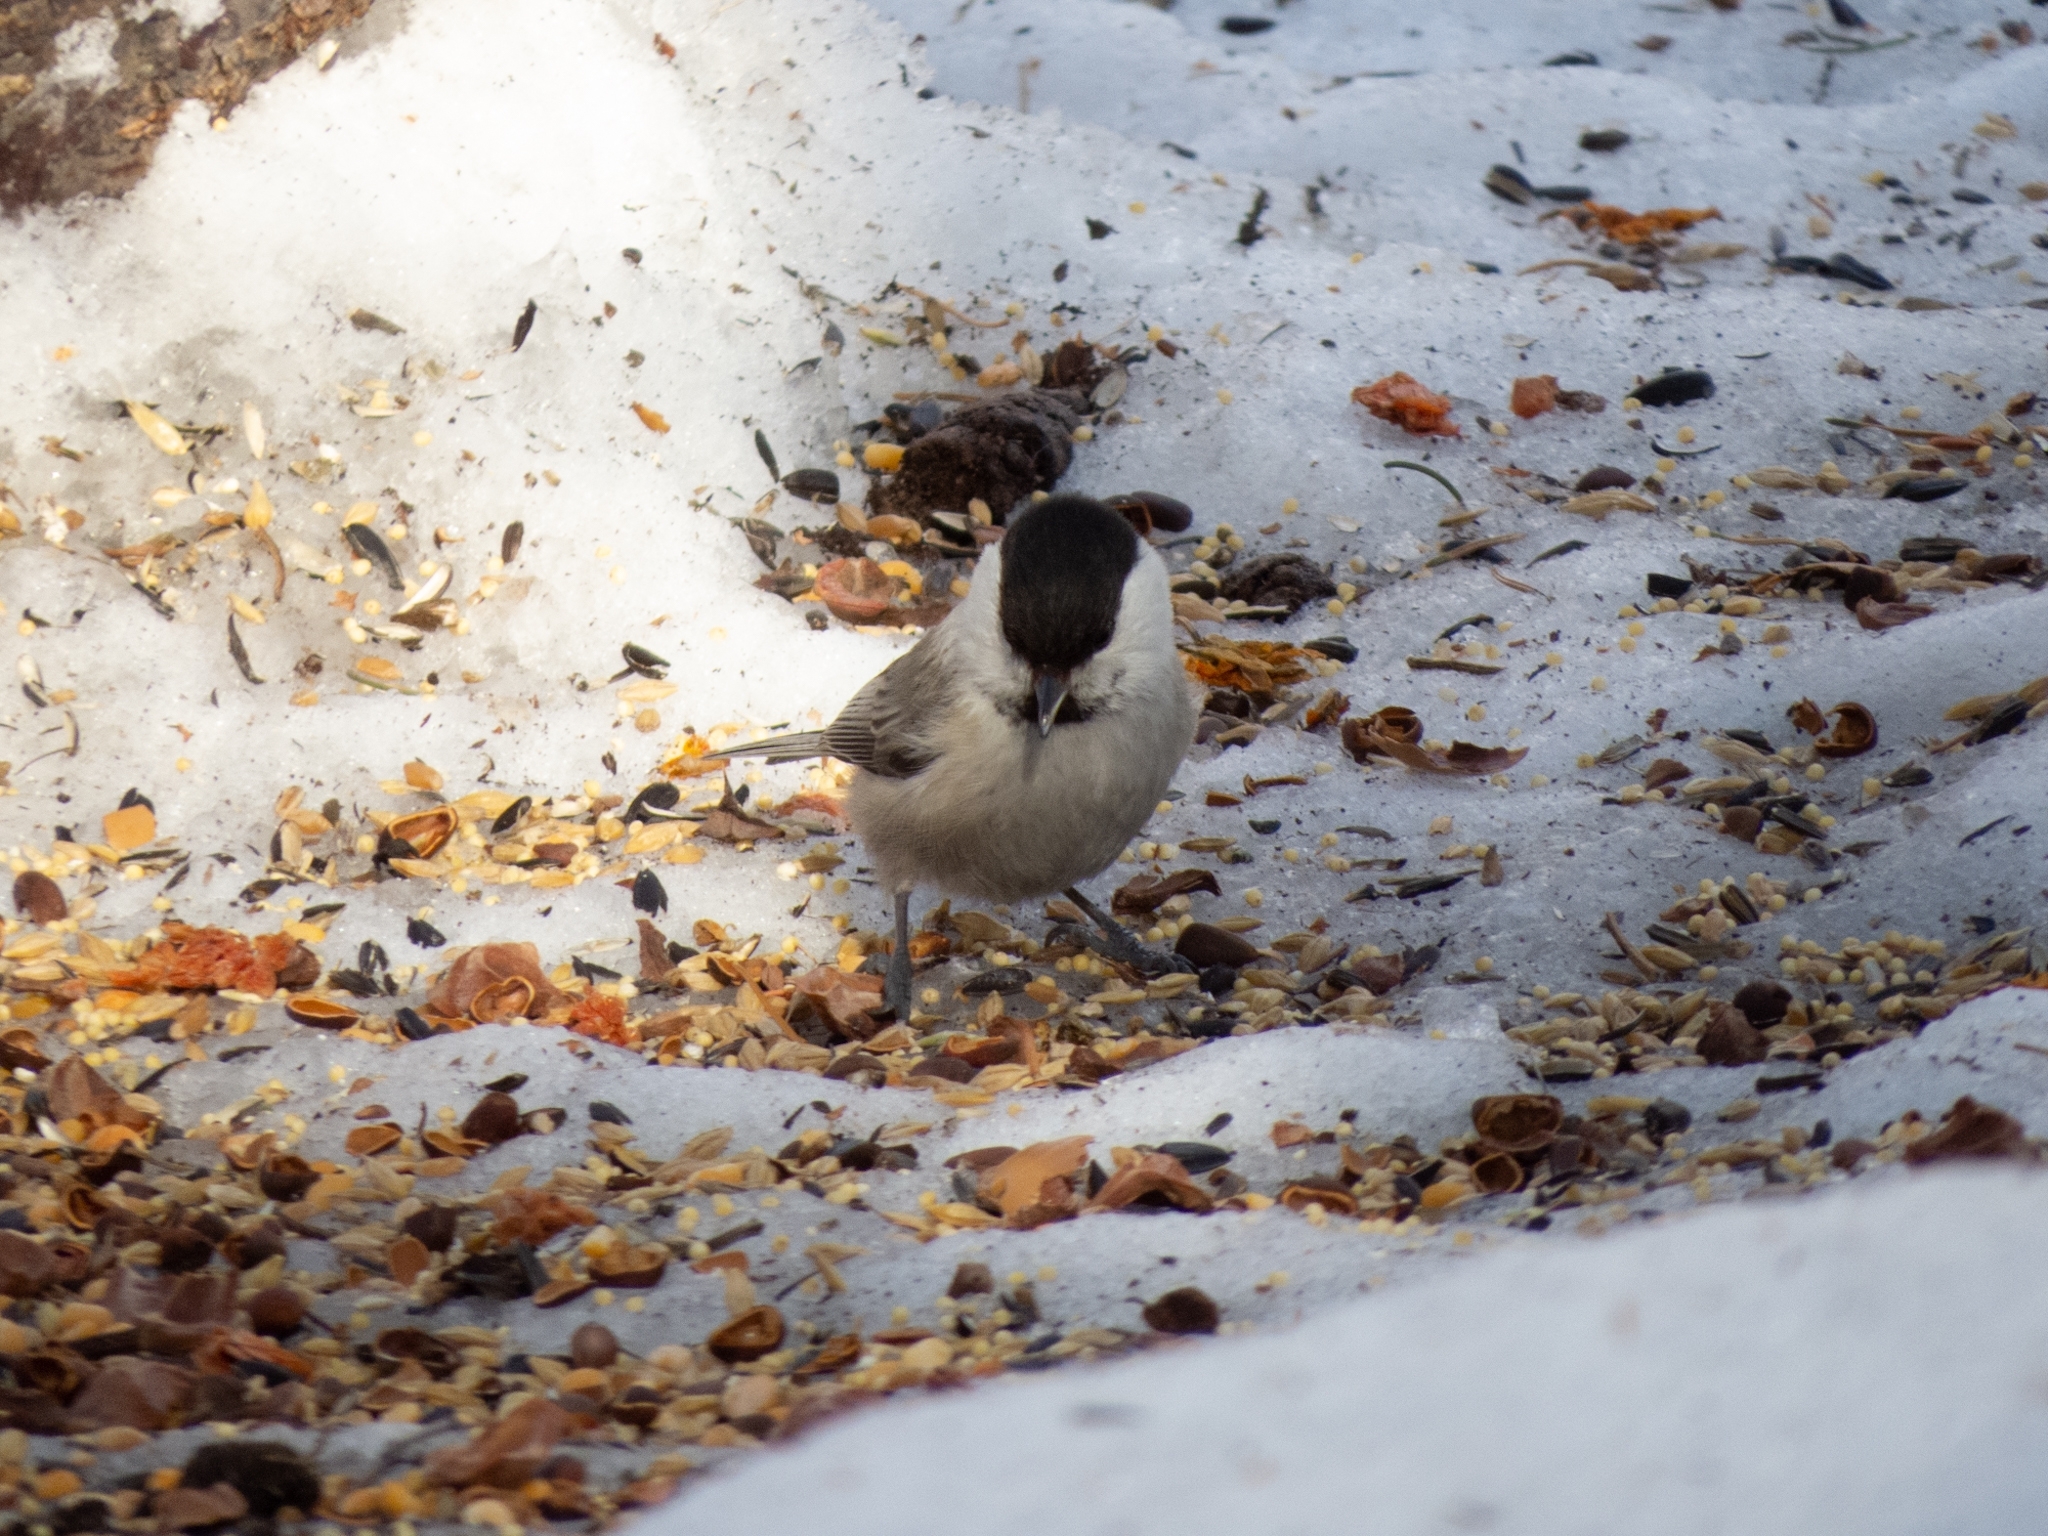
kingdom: Animalia
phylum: Chordata
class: Aves
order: Passeriformes
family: Paridae
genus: Poecile
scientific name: Poecile montanus
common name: Willow tit
